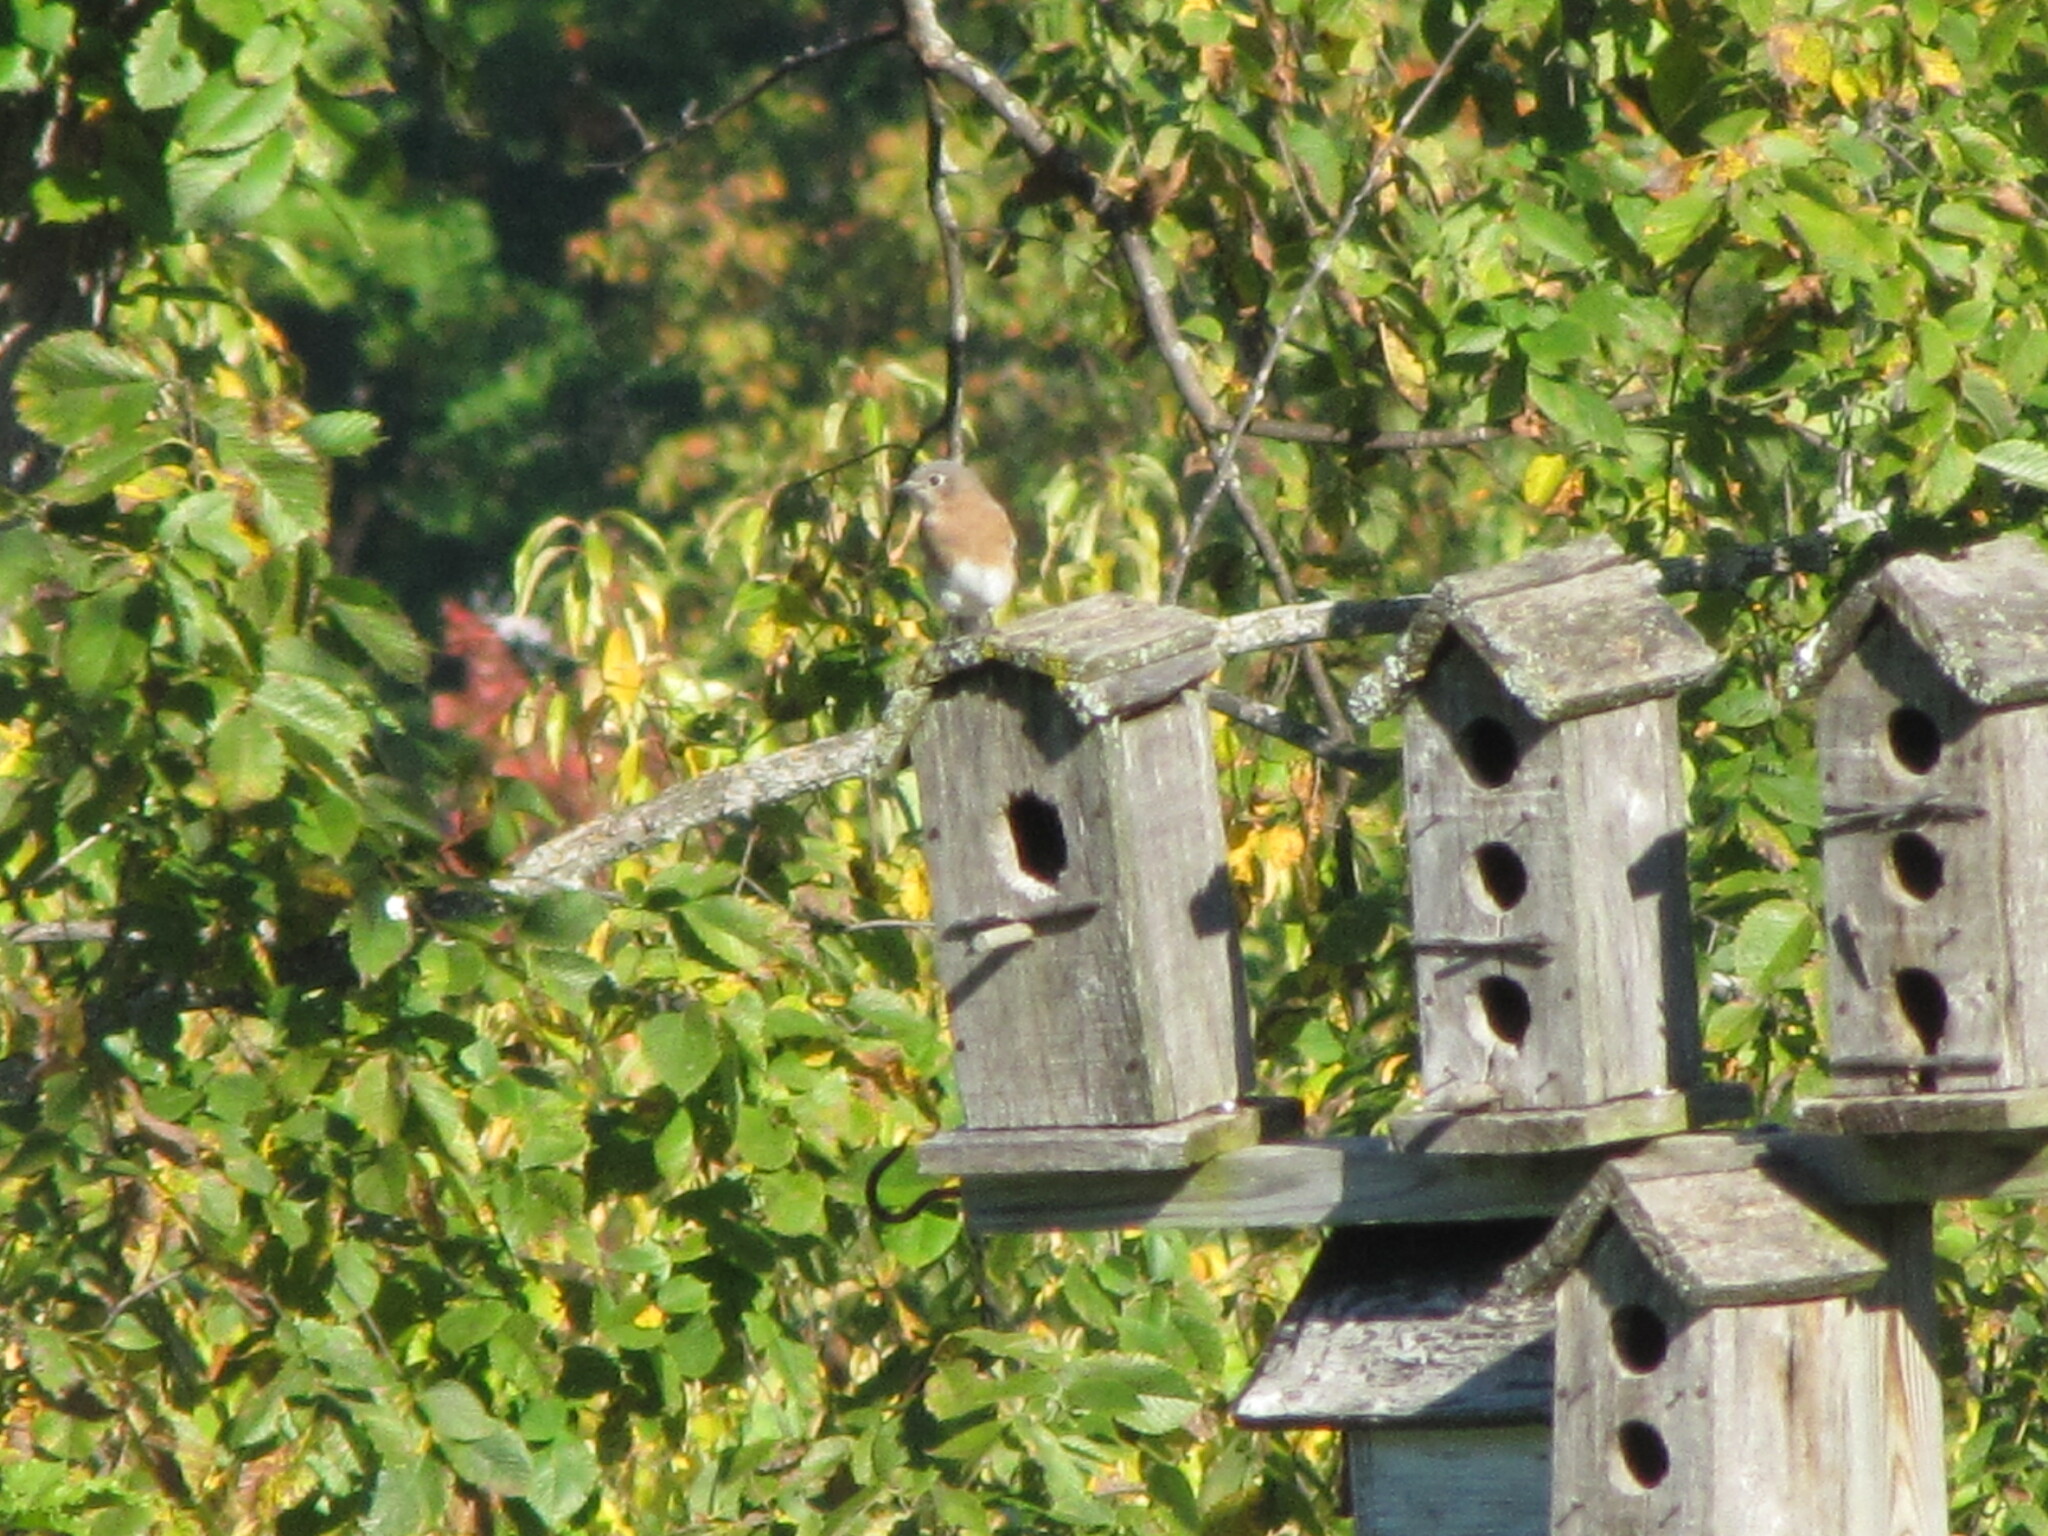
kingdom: Animalia
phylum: Chordata
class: Aves
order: Passeriformes
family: Turdidae
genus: Sialia
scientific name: Sialia sialis
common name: Eastern bluebird
